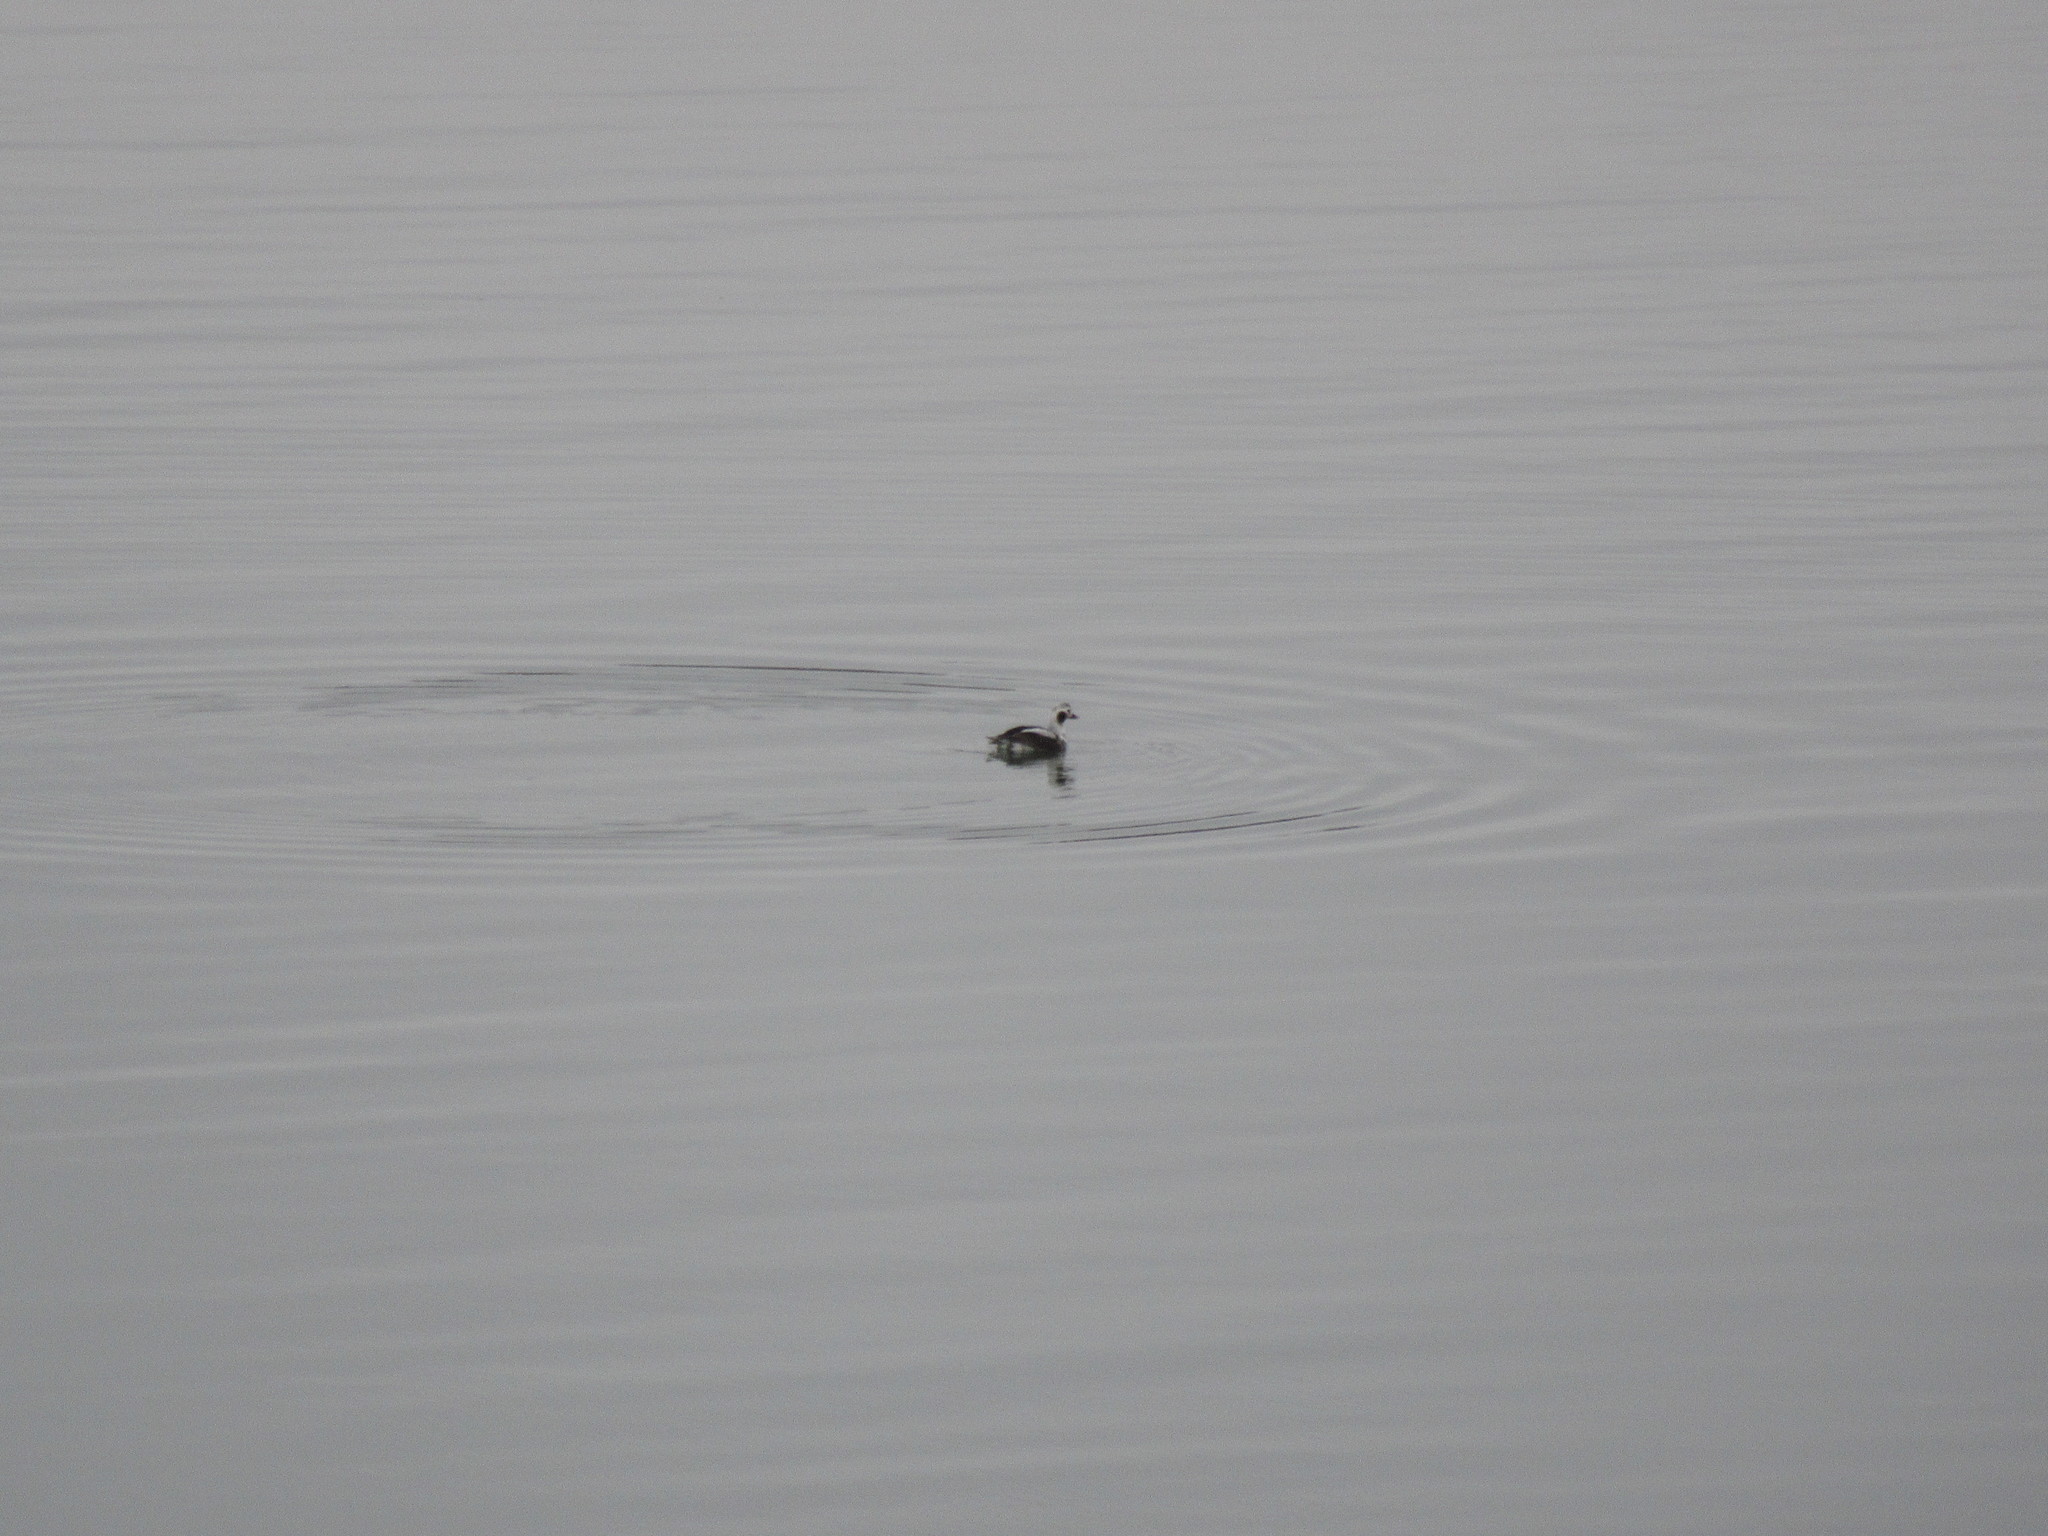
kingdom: Animalia
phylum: Chordata
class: Aves
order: Anseriformes
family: Anatidae
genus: Clangula
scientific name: Clangula hyemalis
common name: Long-tailed duck
